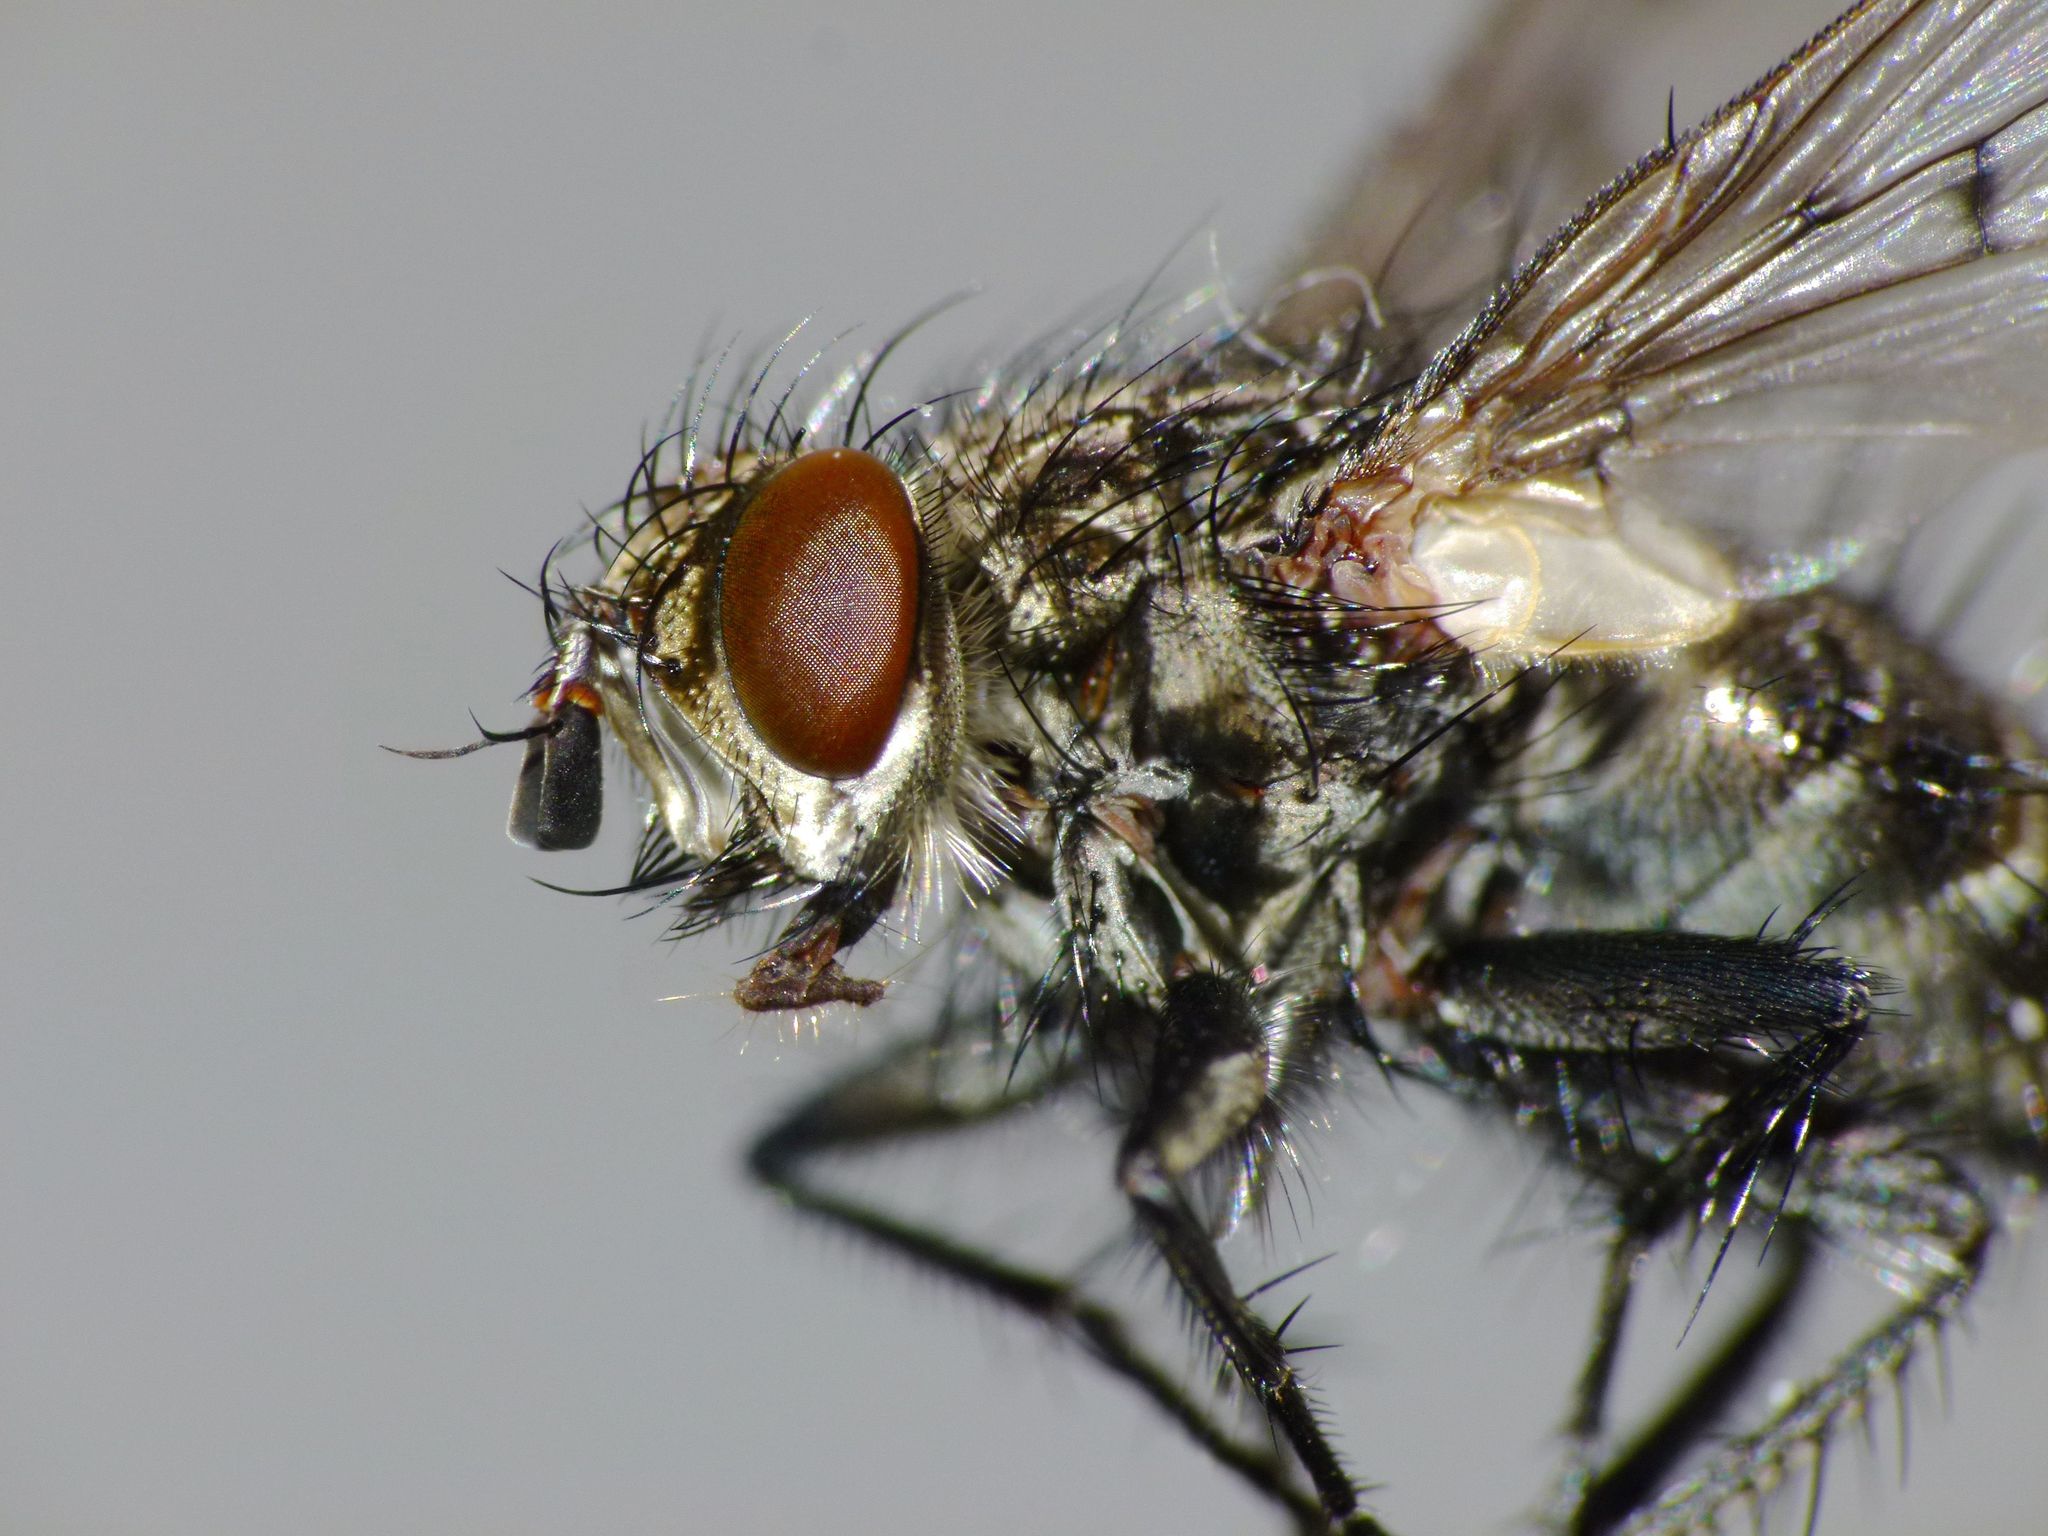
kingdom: Animalia
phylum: Arthropoda
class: Insecta
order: Diptera
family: Tachinidae
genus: Calcager
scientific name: Calcager apertum
